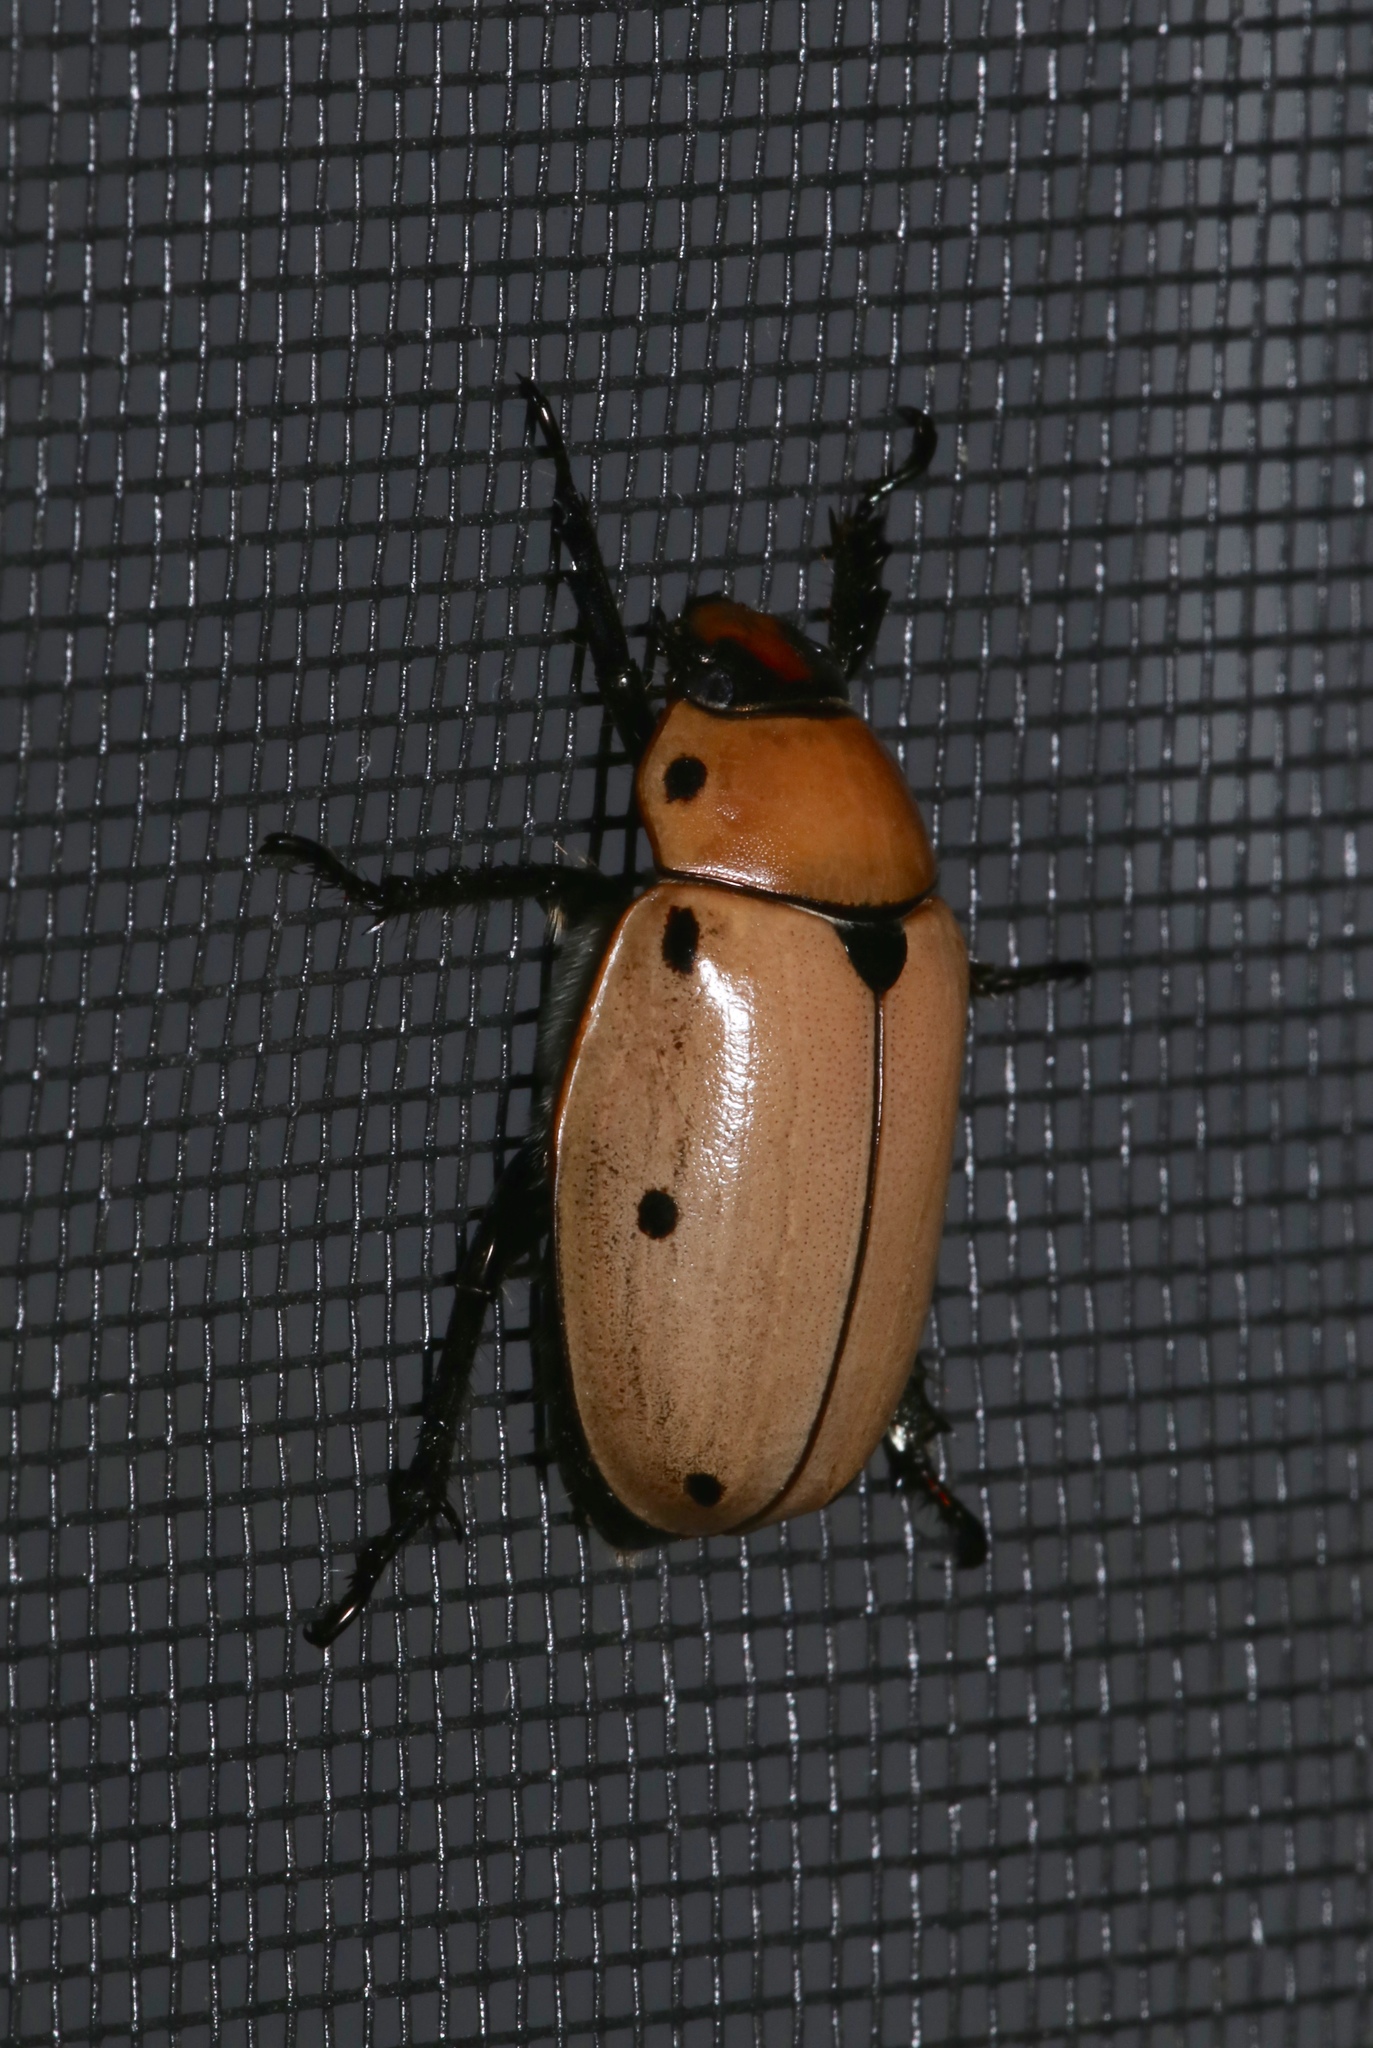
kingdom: Animalia
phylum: Arthropoda
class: Insecta
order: Coleoptera
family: Scarabaeidae
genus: Pelidnota
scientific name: Pelidnota punctata
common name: Grapevine beetle
